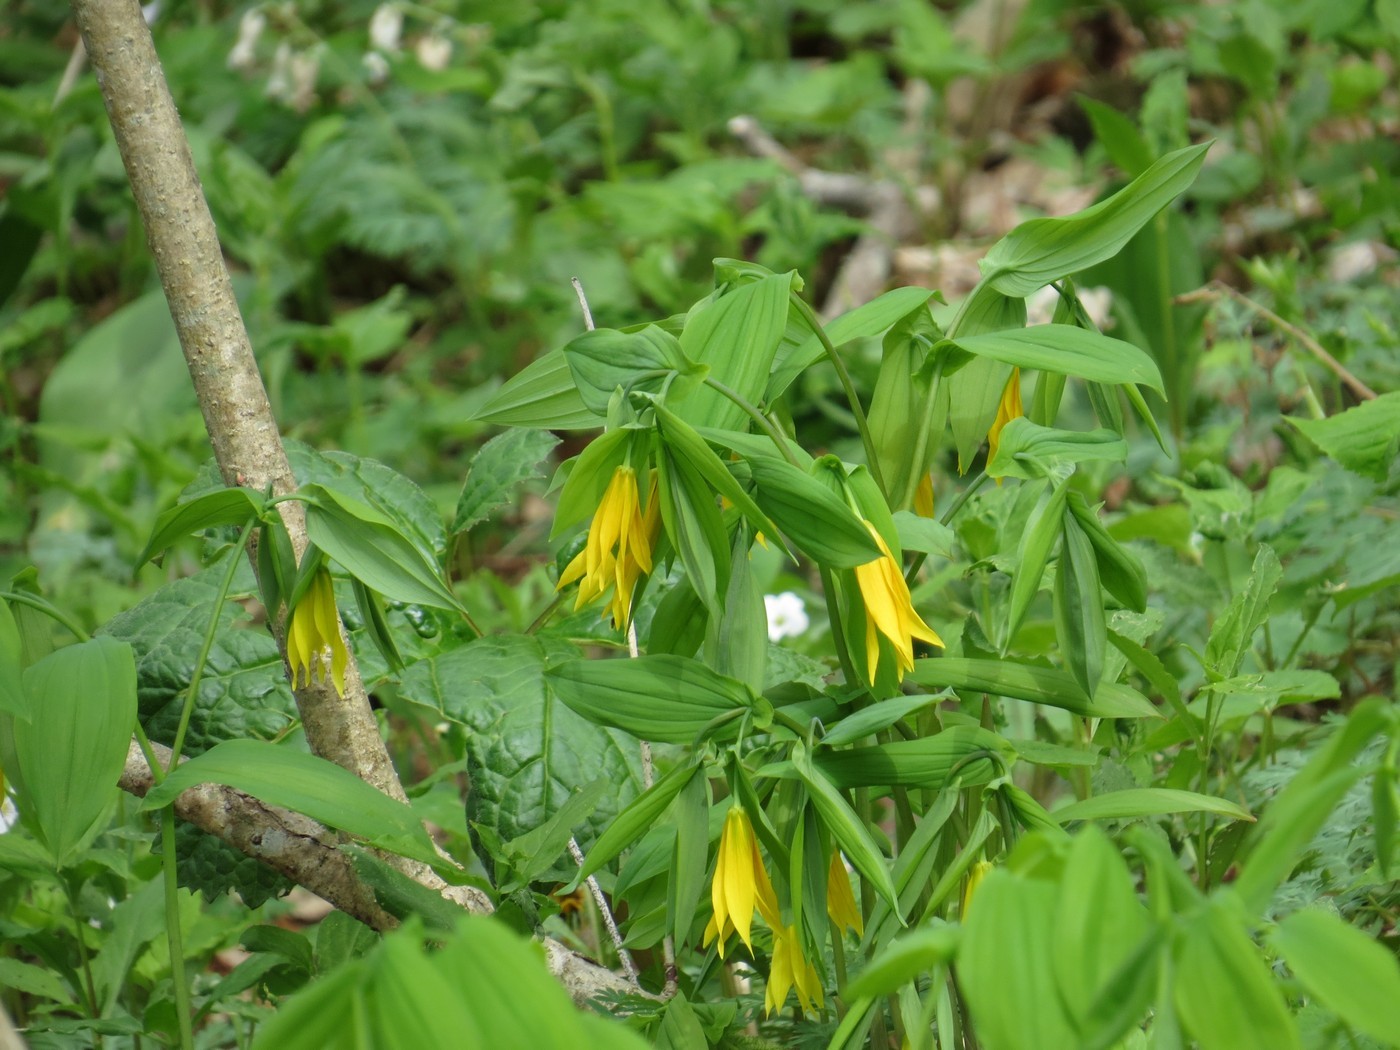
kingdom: Plantae
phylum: Tracheophyta
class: Liliopsida
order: Liliales
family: Colchicaceae
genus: Uvularia
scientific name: Uvularia grandiflora
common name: Bellwort
